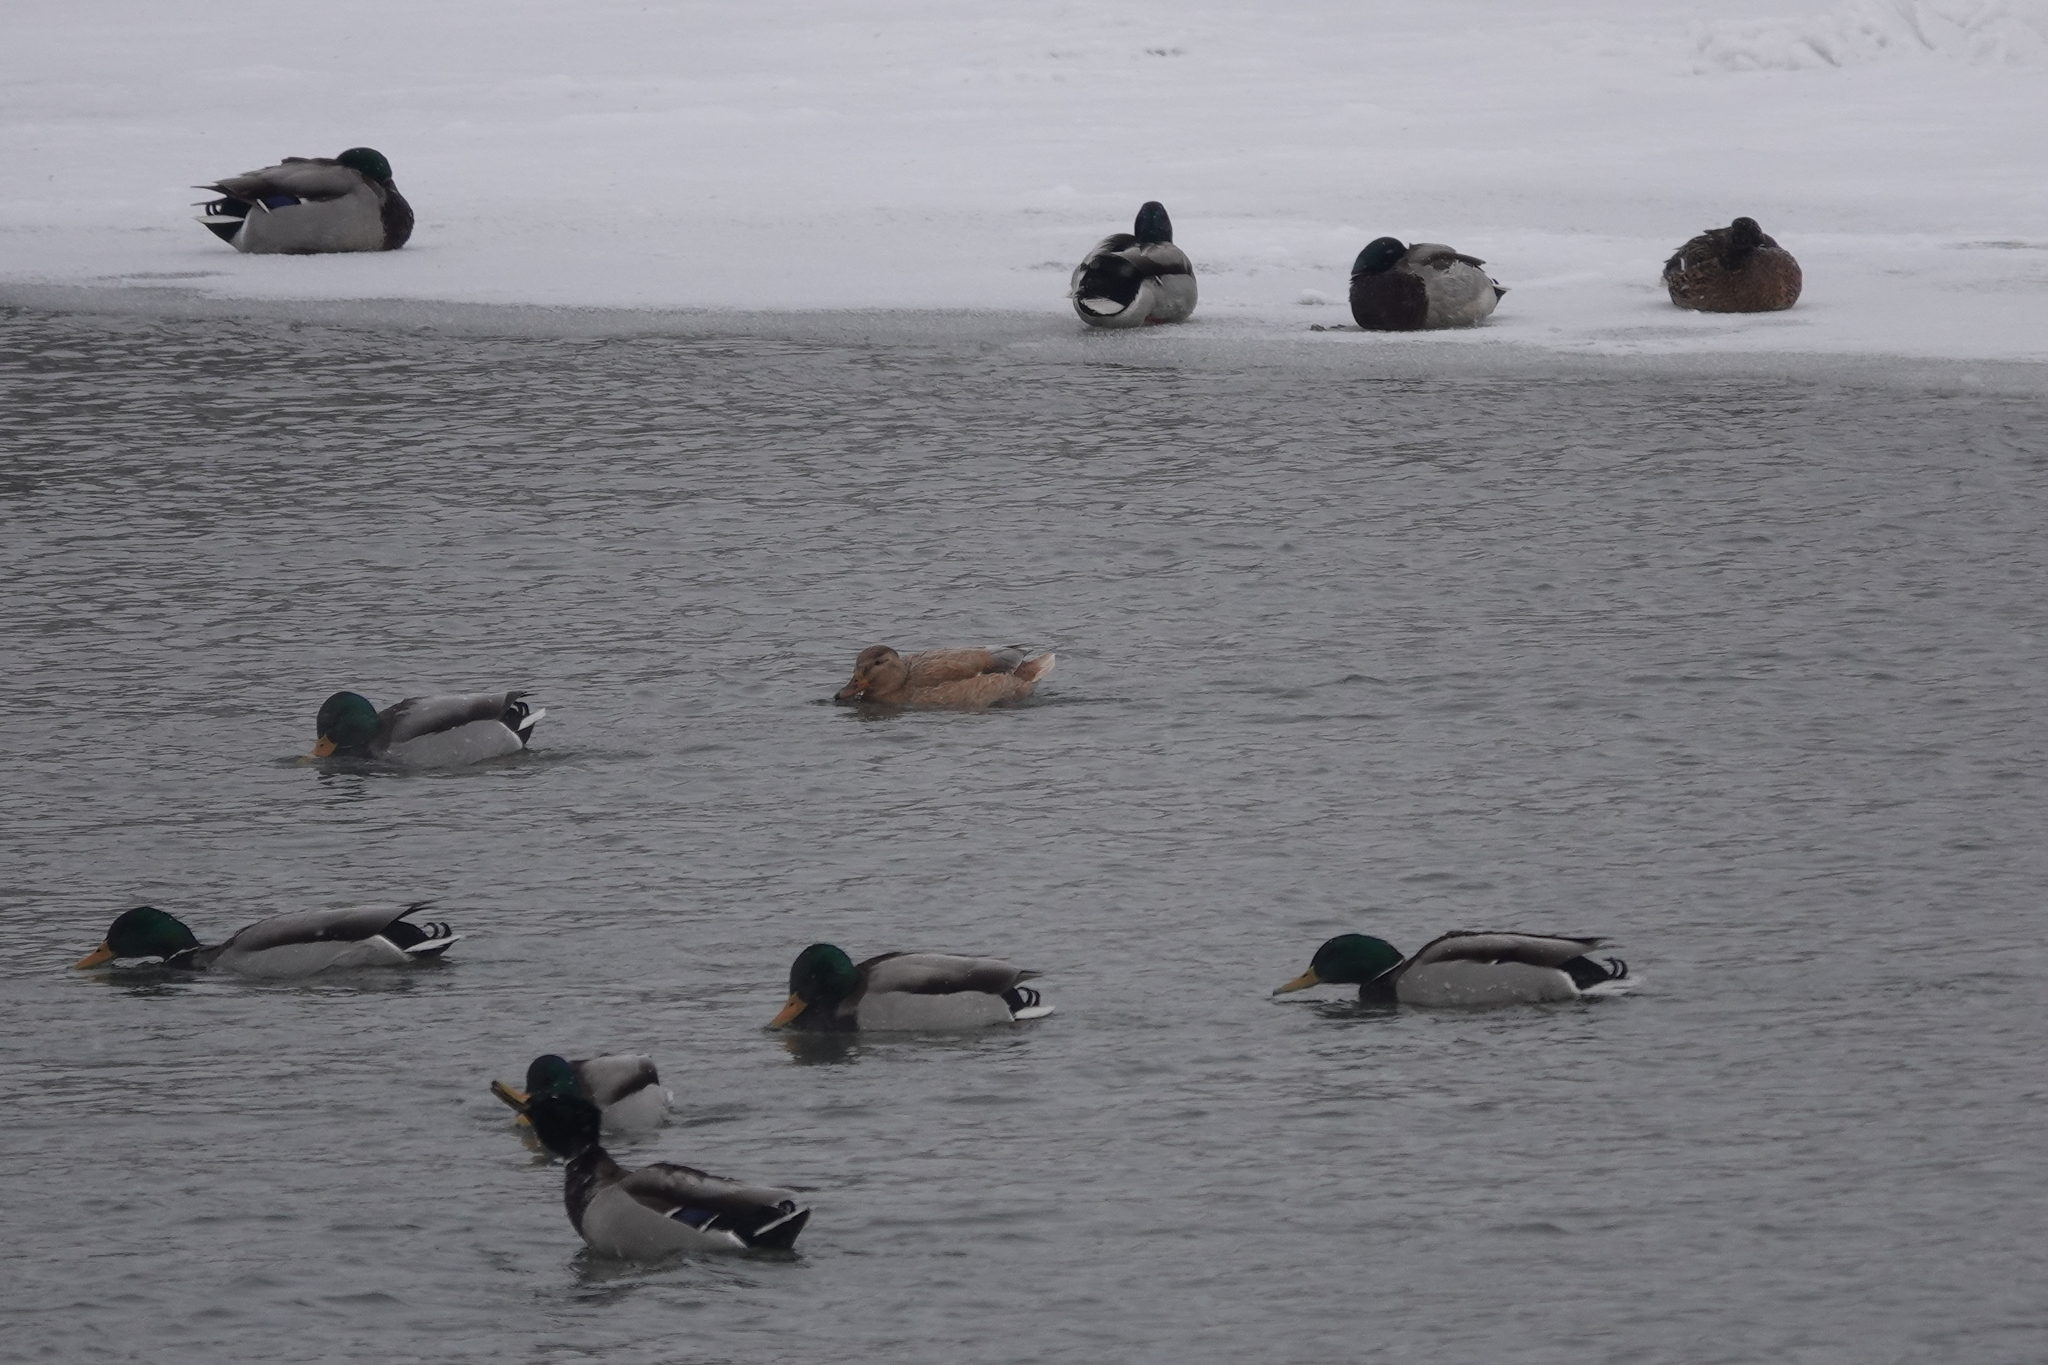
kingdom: Animalia
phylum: Chordata
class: Aves
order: Anseriformes
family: Anatidae
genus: Anas
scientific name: Anas platyrhynchos
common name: Mallard
